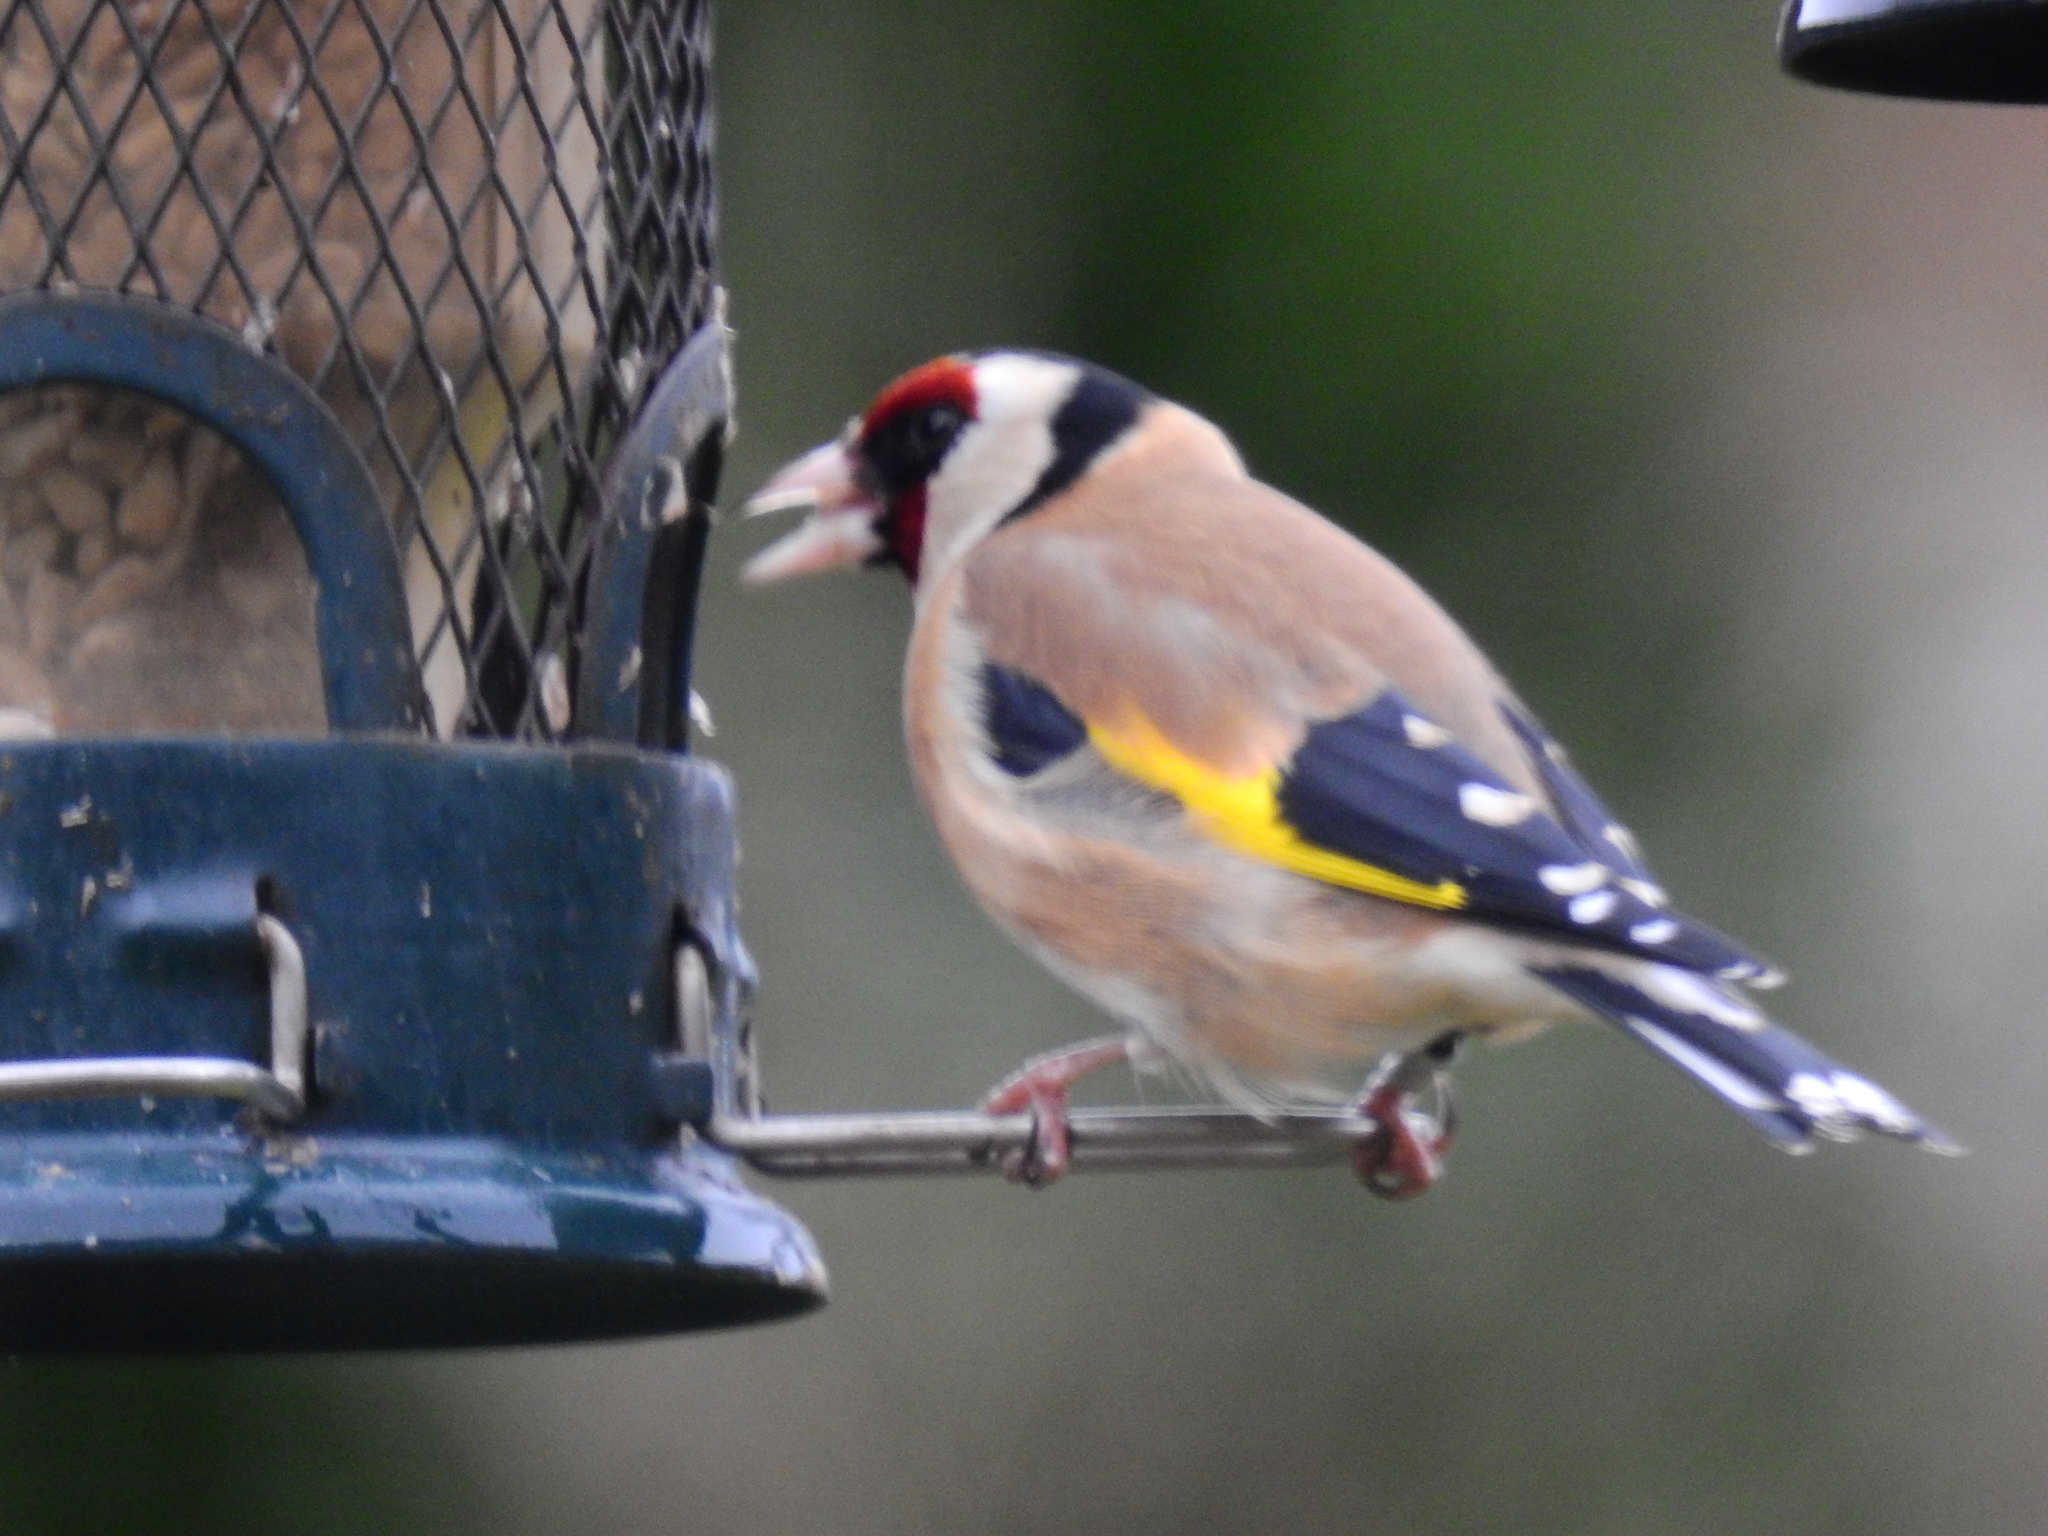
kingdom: Animalia
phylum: Chordata
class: Aves
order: Passeriformes
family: Fringillidae
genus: Carduelis
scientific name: Carduelis carduelis
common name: European goldfinch
